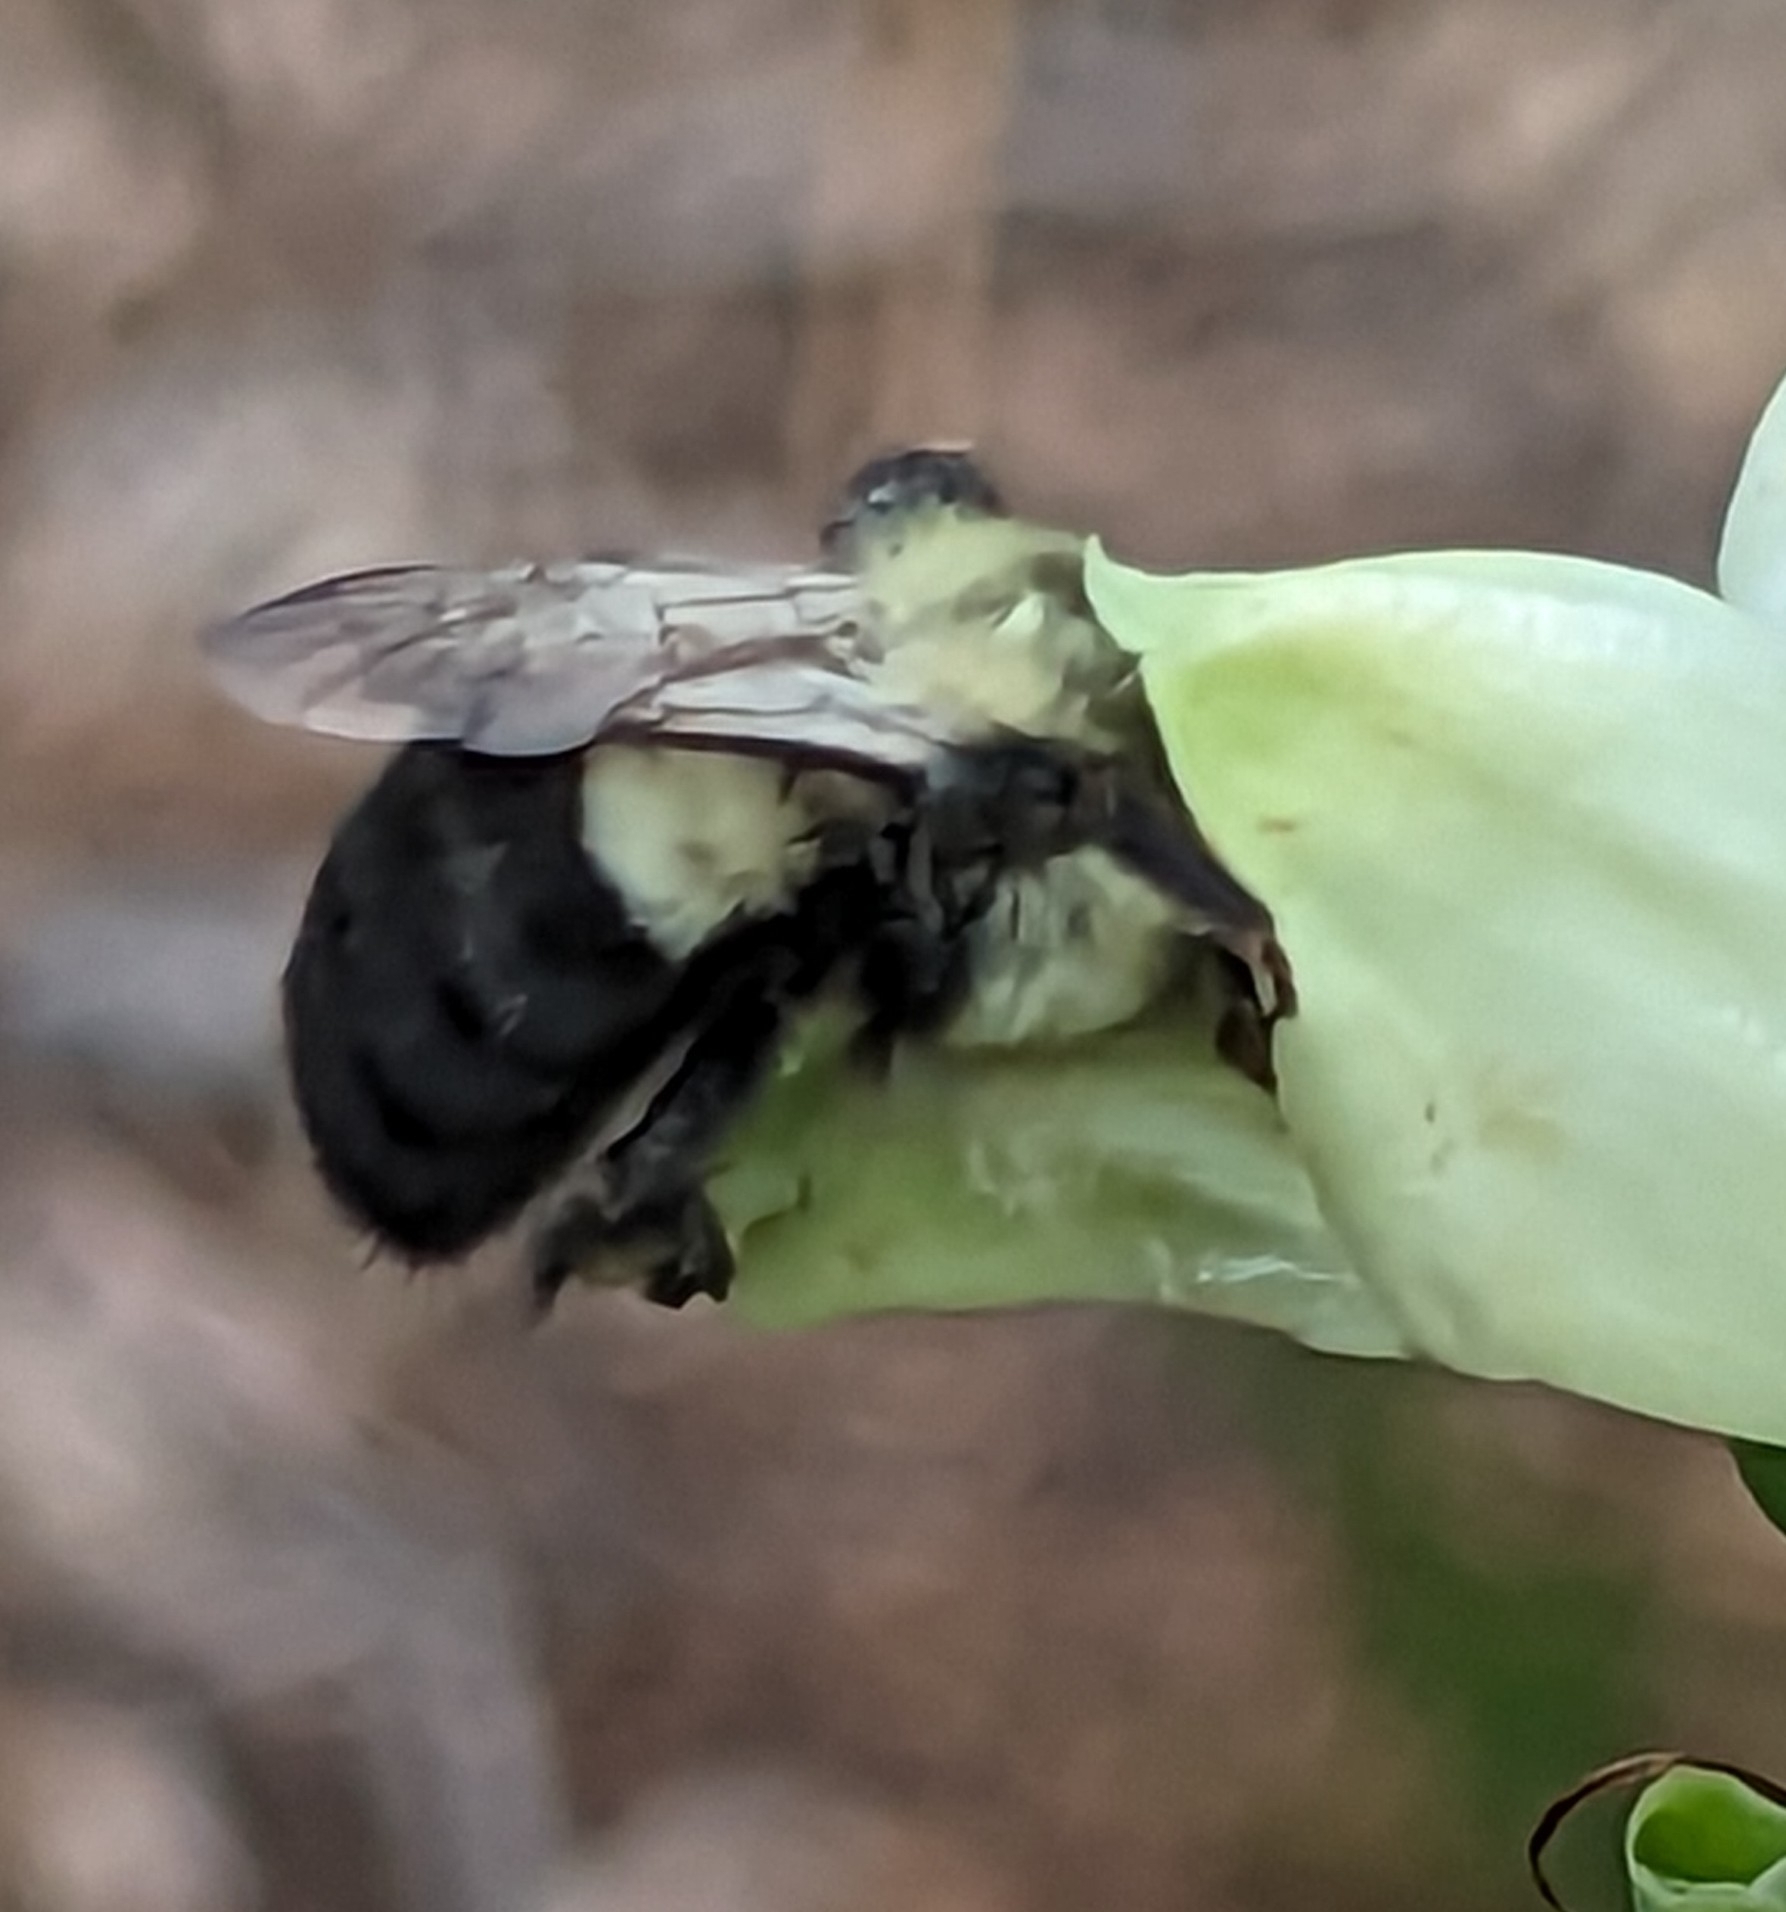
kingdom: Animalia
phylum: Arthropoda
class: Insecta
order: Hymenoptera
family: Apidae
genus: Bombus
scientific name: Bombus impatiens
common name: Common eastern bumble bee
